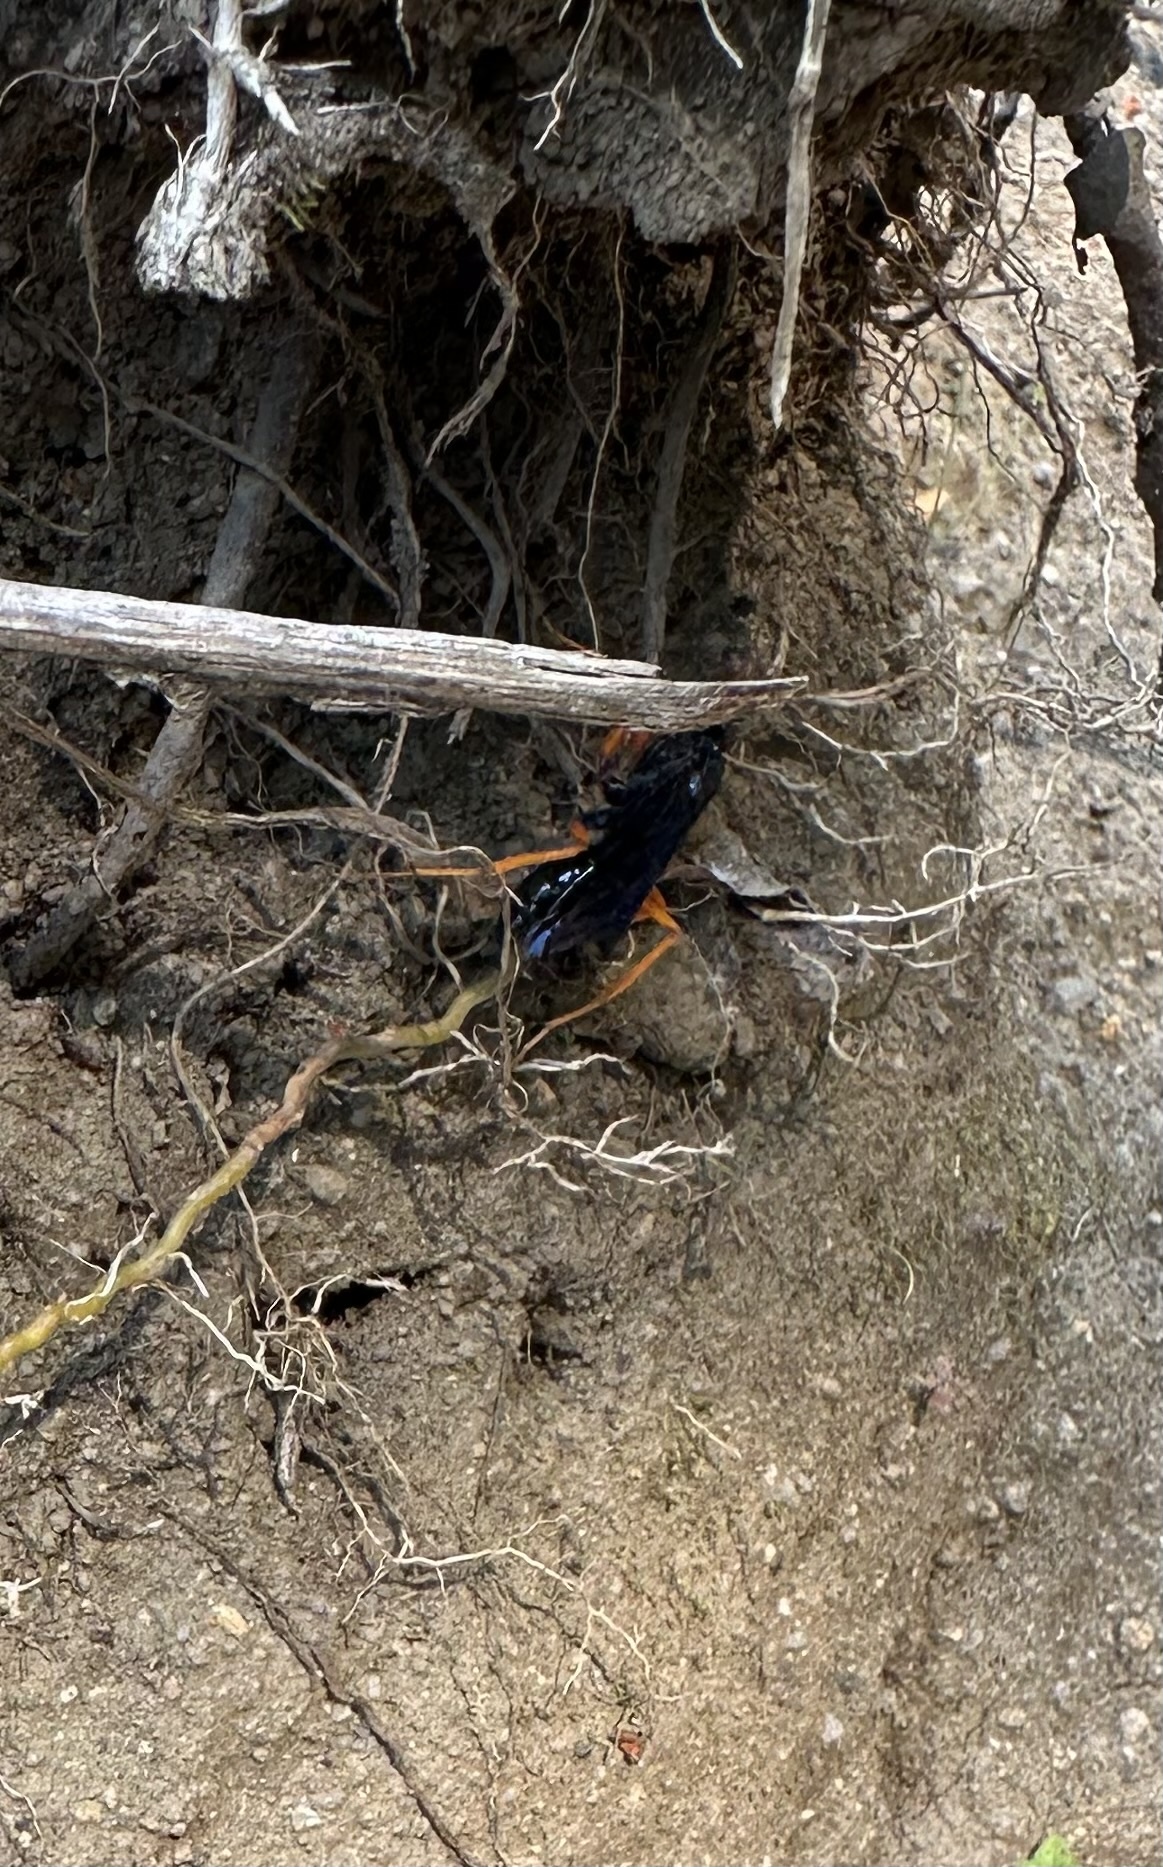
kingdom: Animalia
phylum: Arthropoda
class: Insecta
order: Hymenoptera
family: Pompilidae
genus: Sphictostethus
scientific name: Sphictostethus xanthopus
